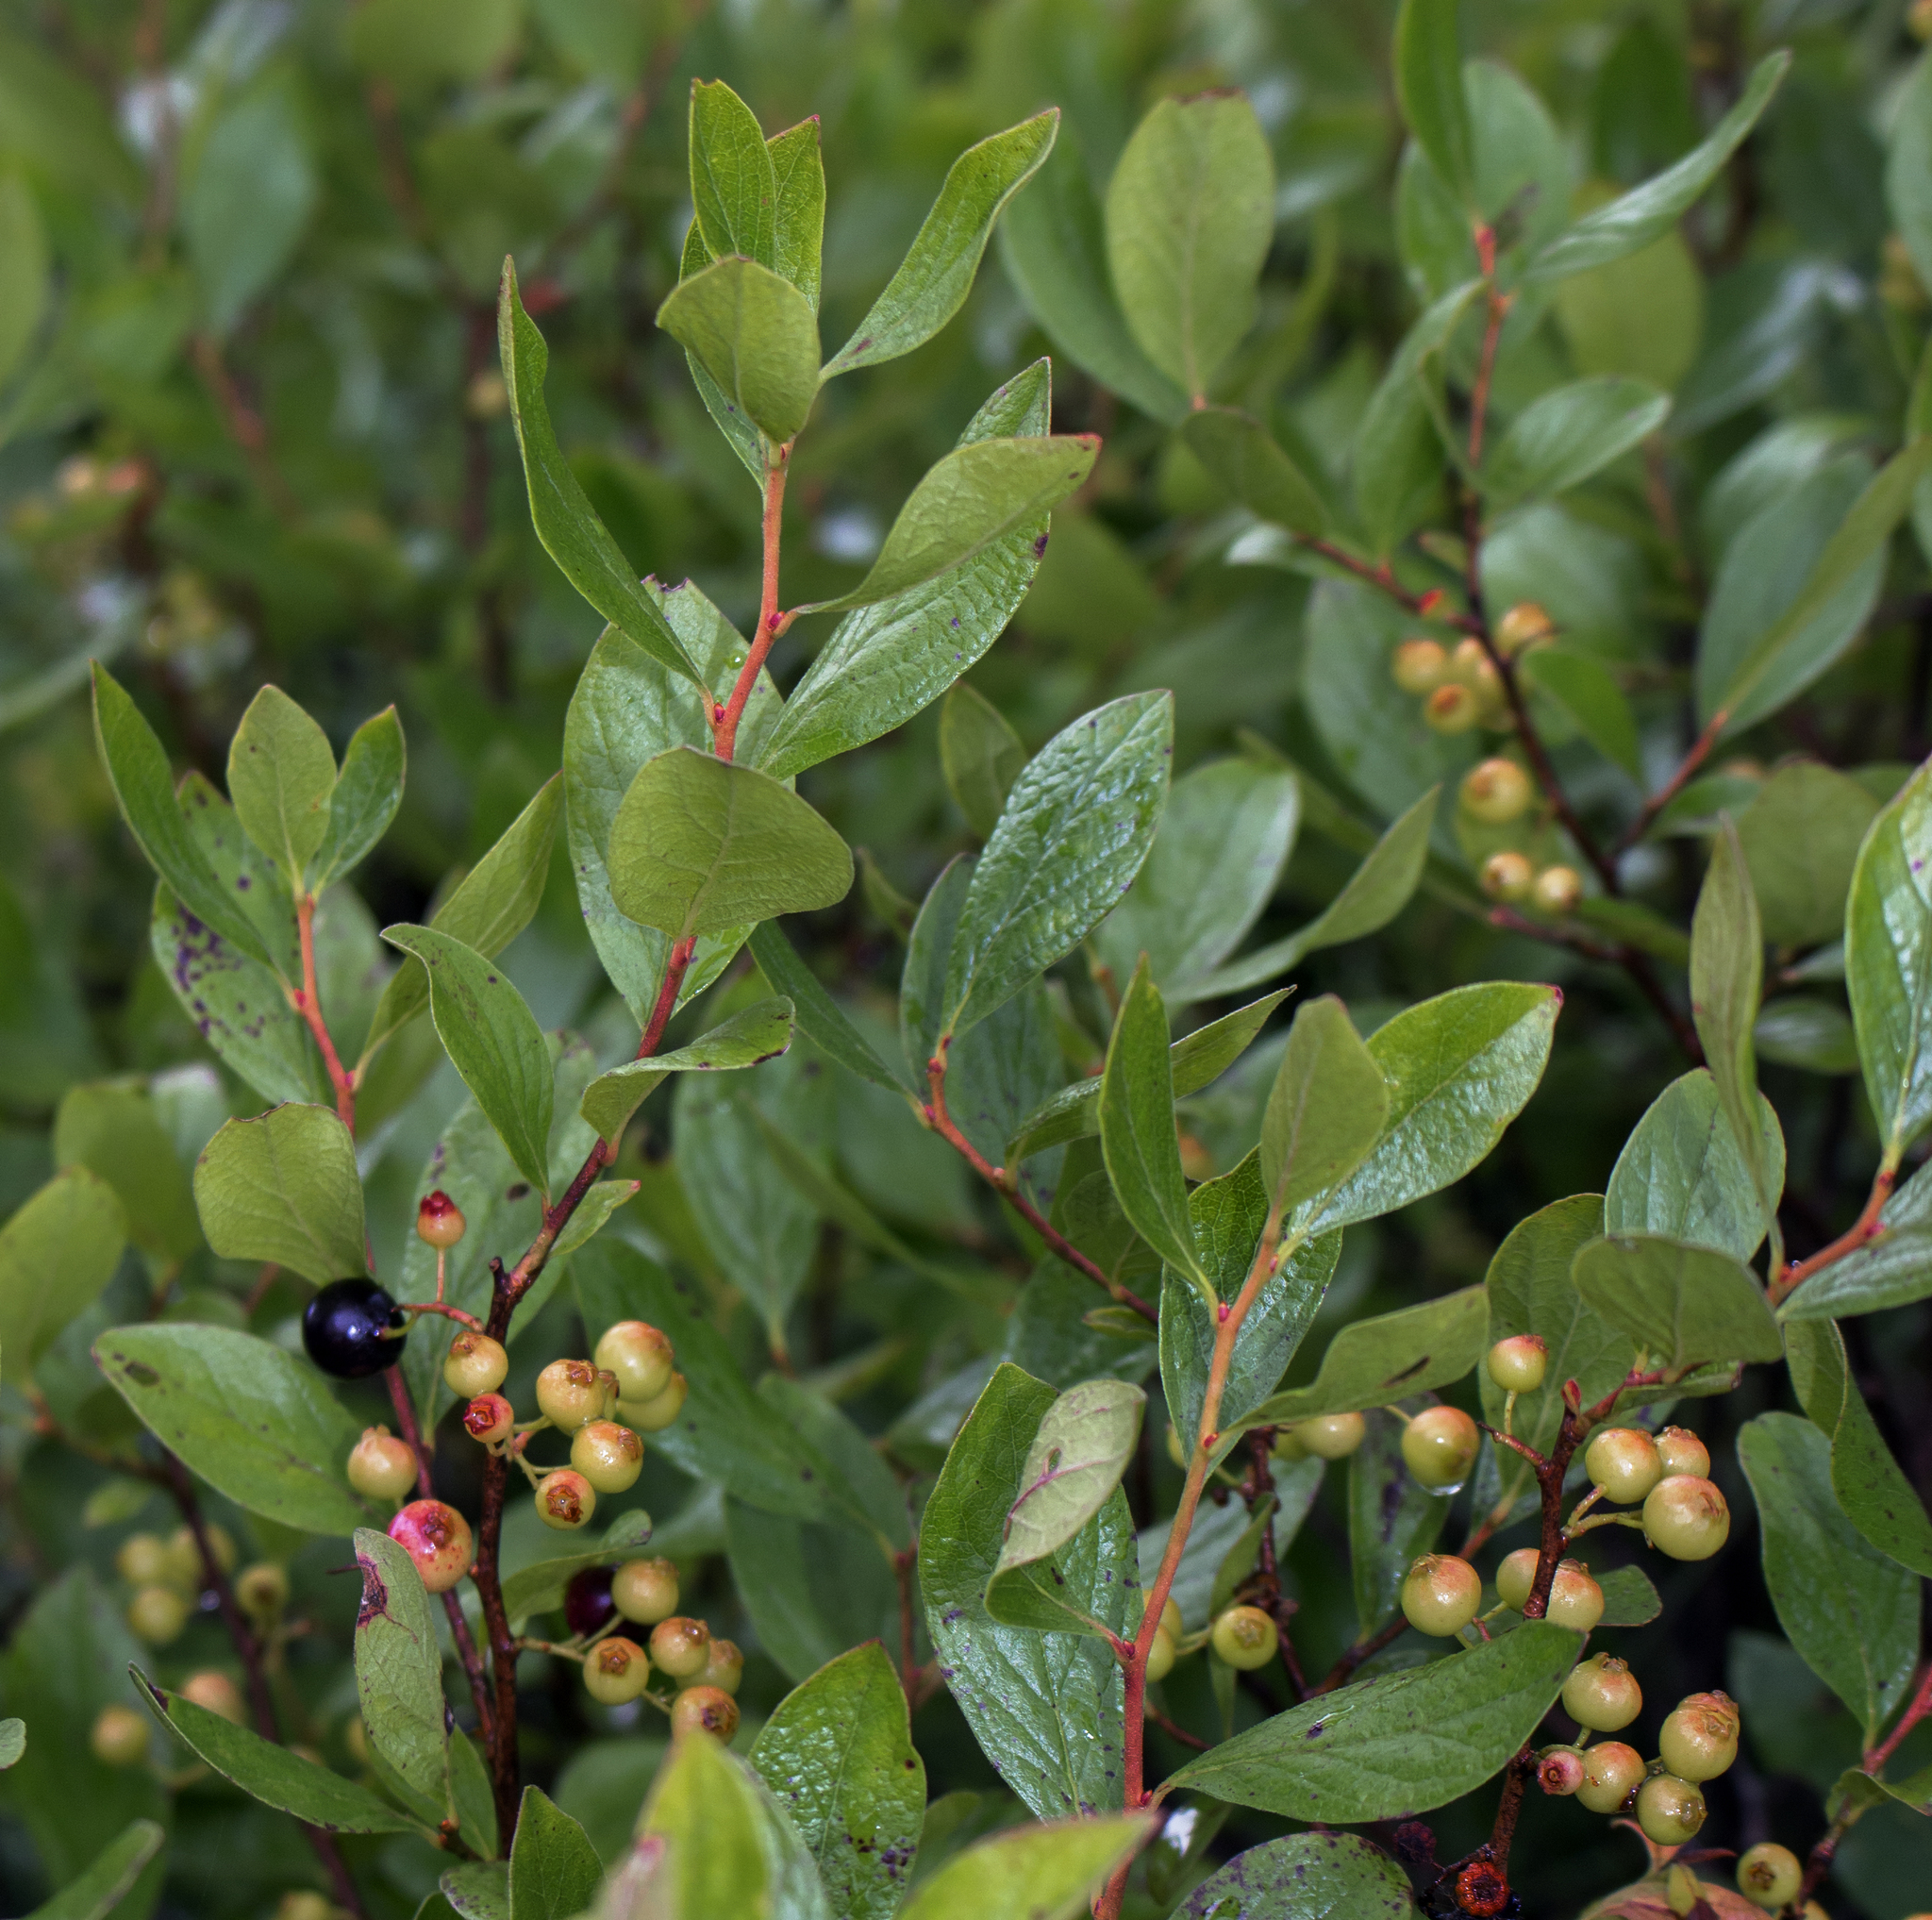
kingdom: Plantae
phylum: Tracheophyta
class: Magnoliopsida
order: Ericales
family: Ericaceae
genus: Gaylussacia
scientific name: Gaylussacia baccata
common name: Black huckleberry
